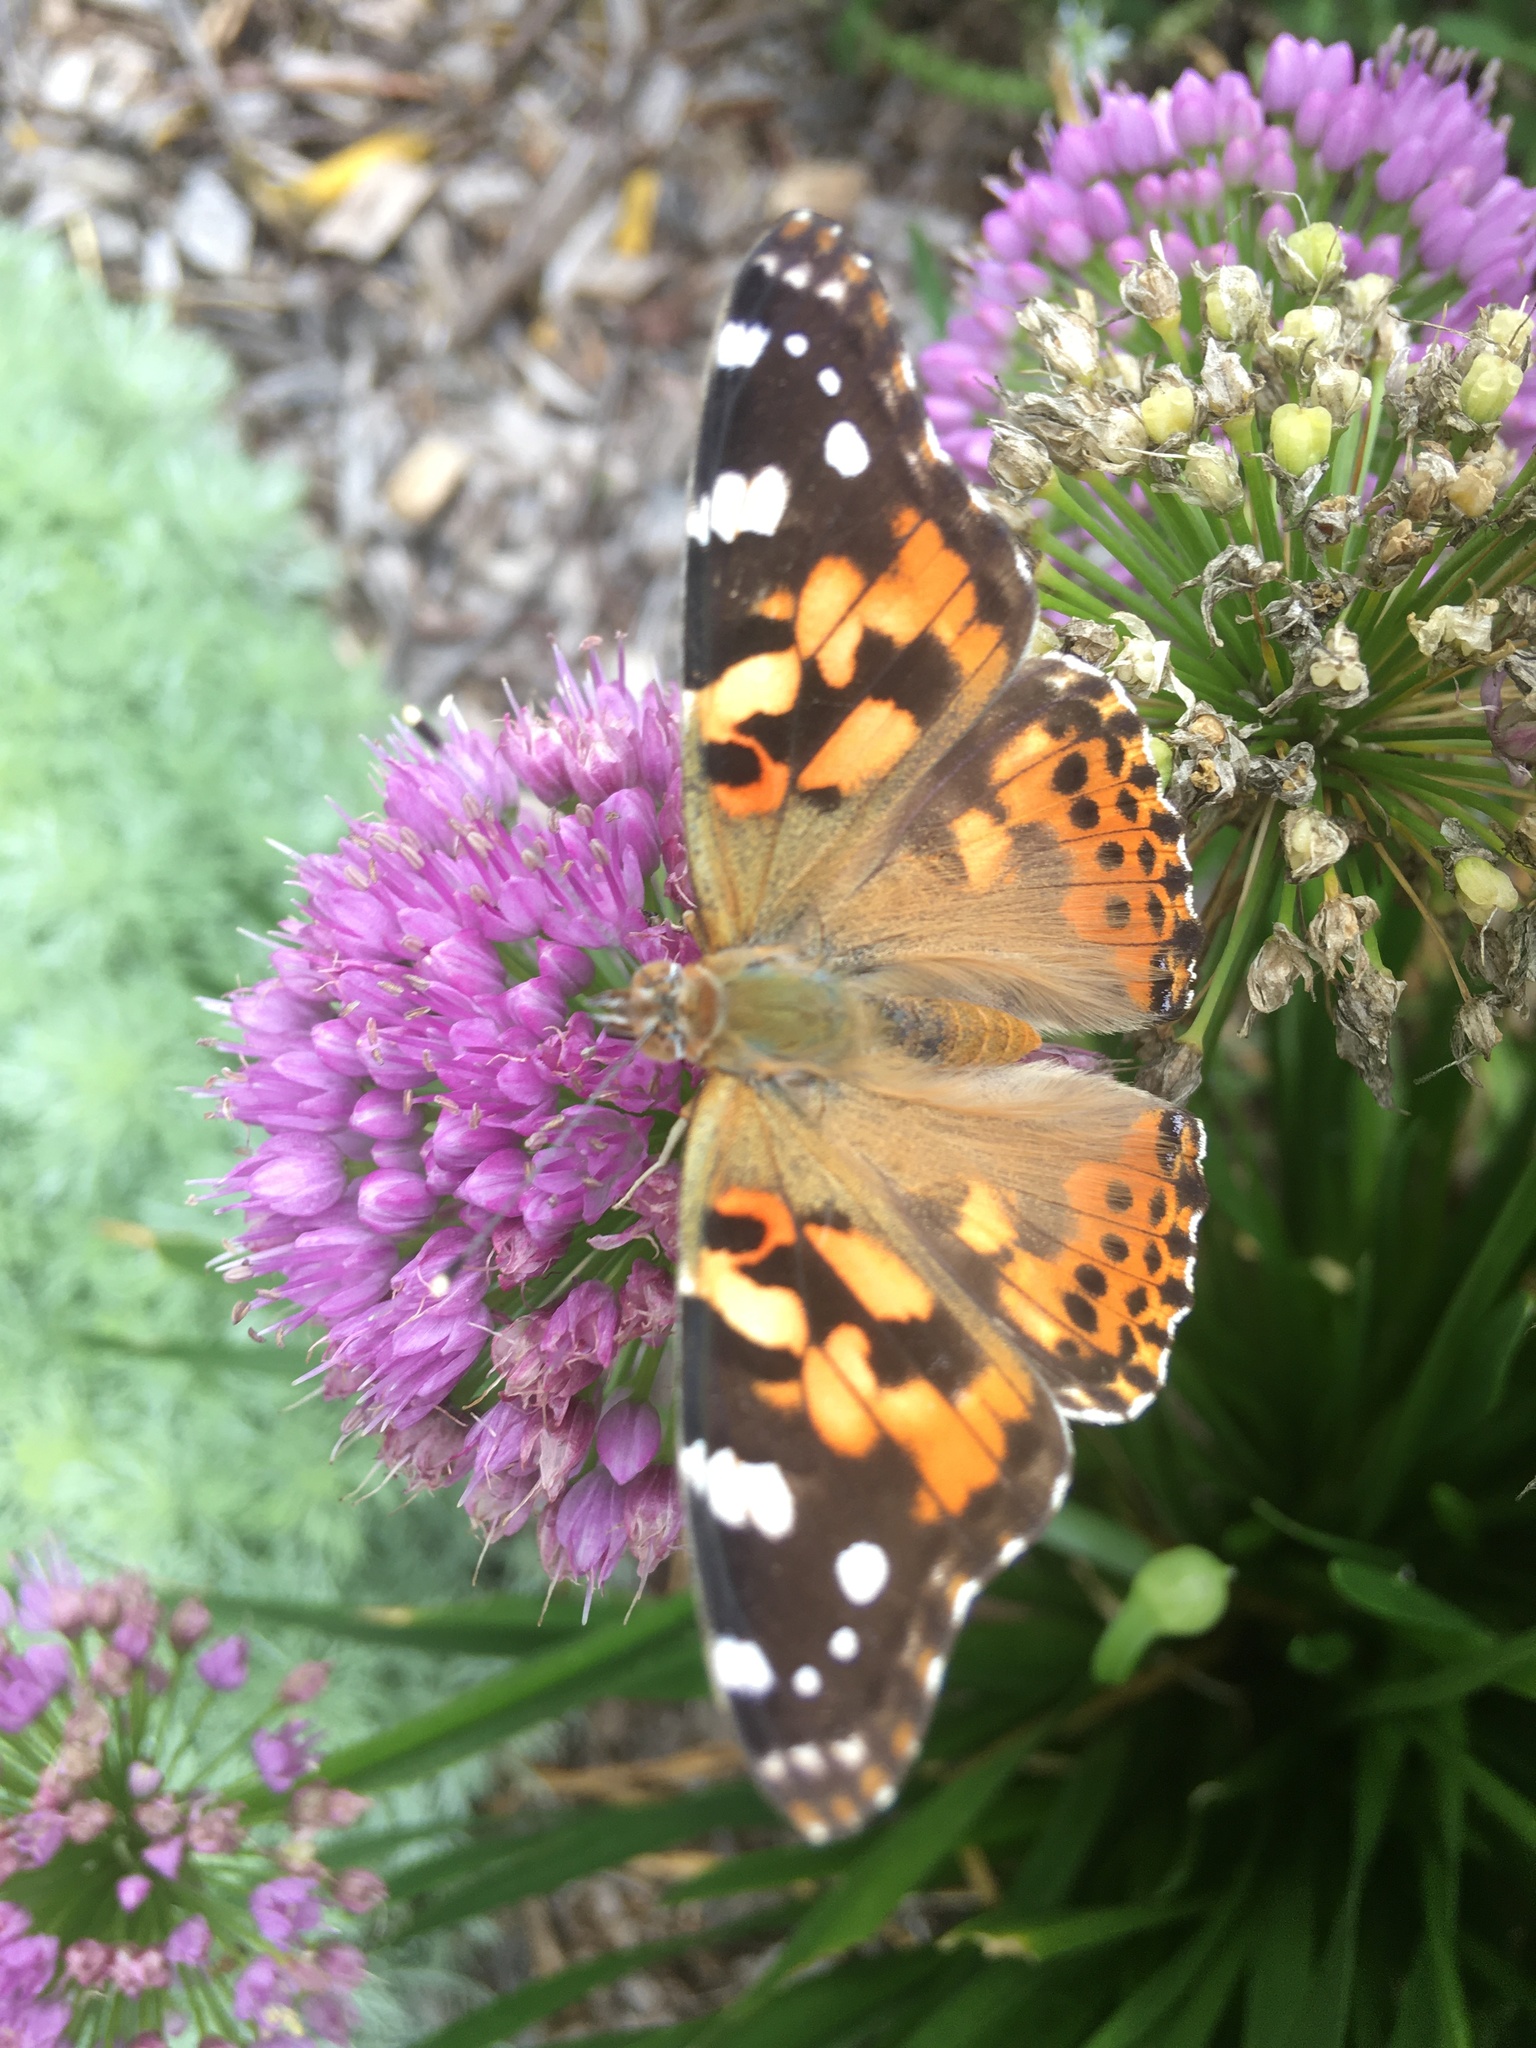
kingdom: Animalia
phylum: Arthropoda
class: Insecta
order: Lepidoptera
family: Nymphalidae
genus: Vanessa
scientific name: Vanessa cardui
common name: Painted lady
